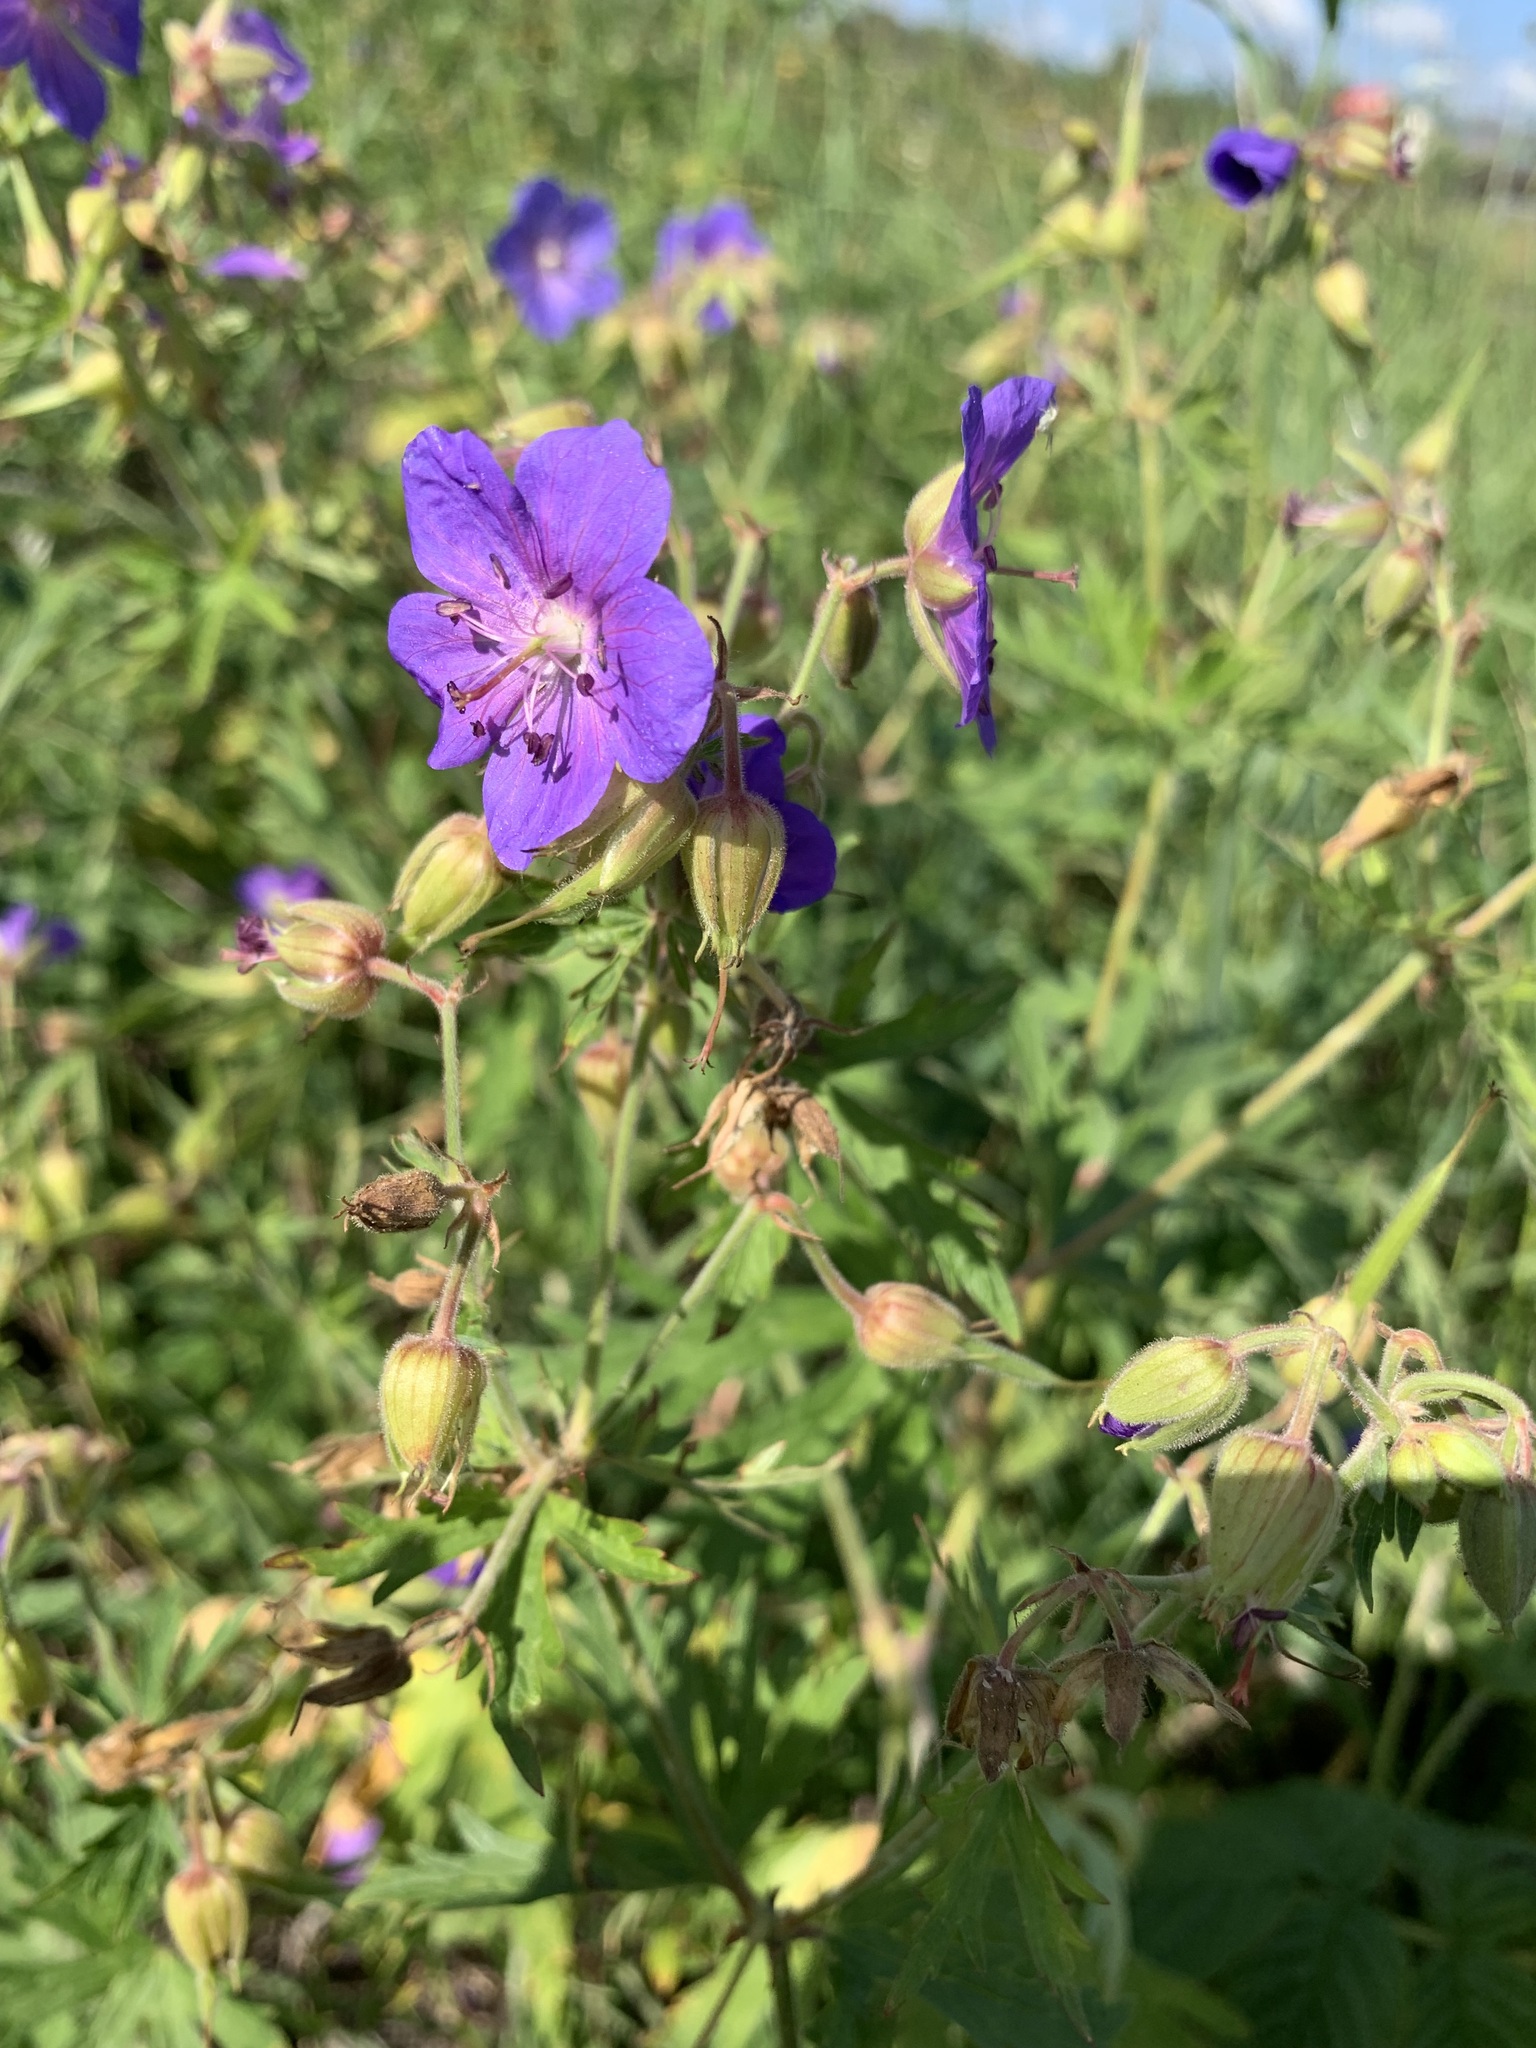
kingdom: Plantae
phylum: Tracheophyta
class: Magnoliopsida
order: Geraniales
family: Geraniaceae
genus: Geranium
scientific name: Geranium pratense
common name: Meadow crane's-bill
